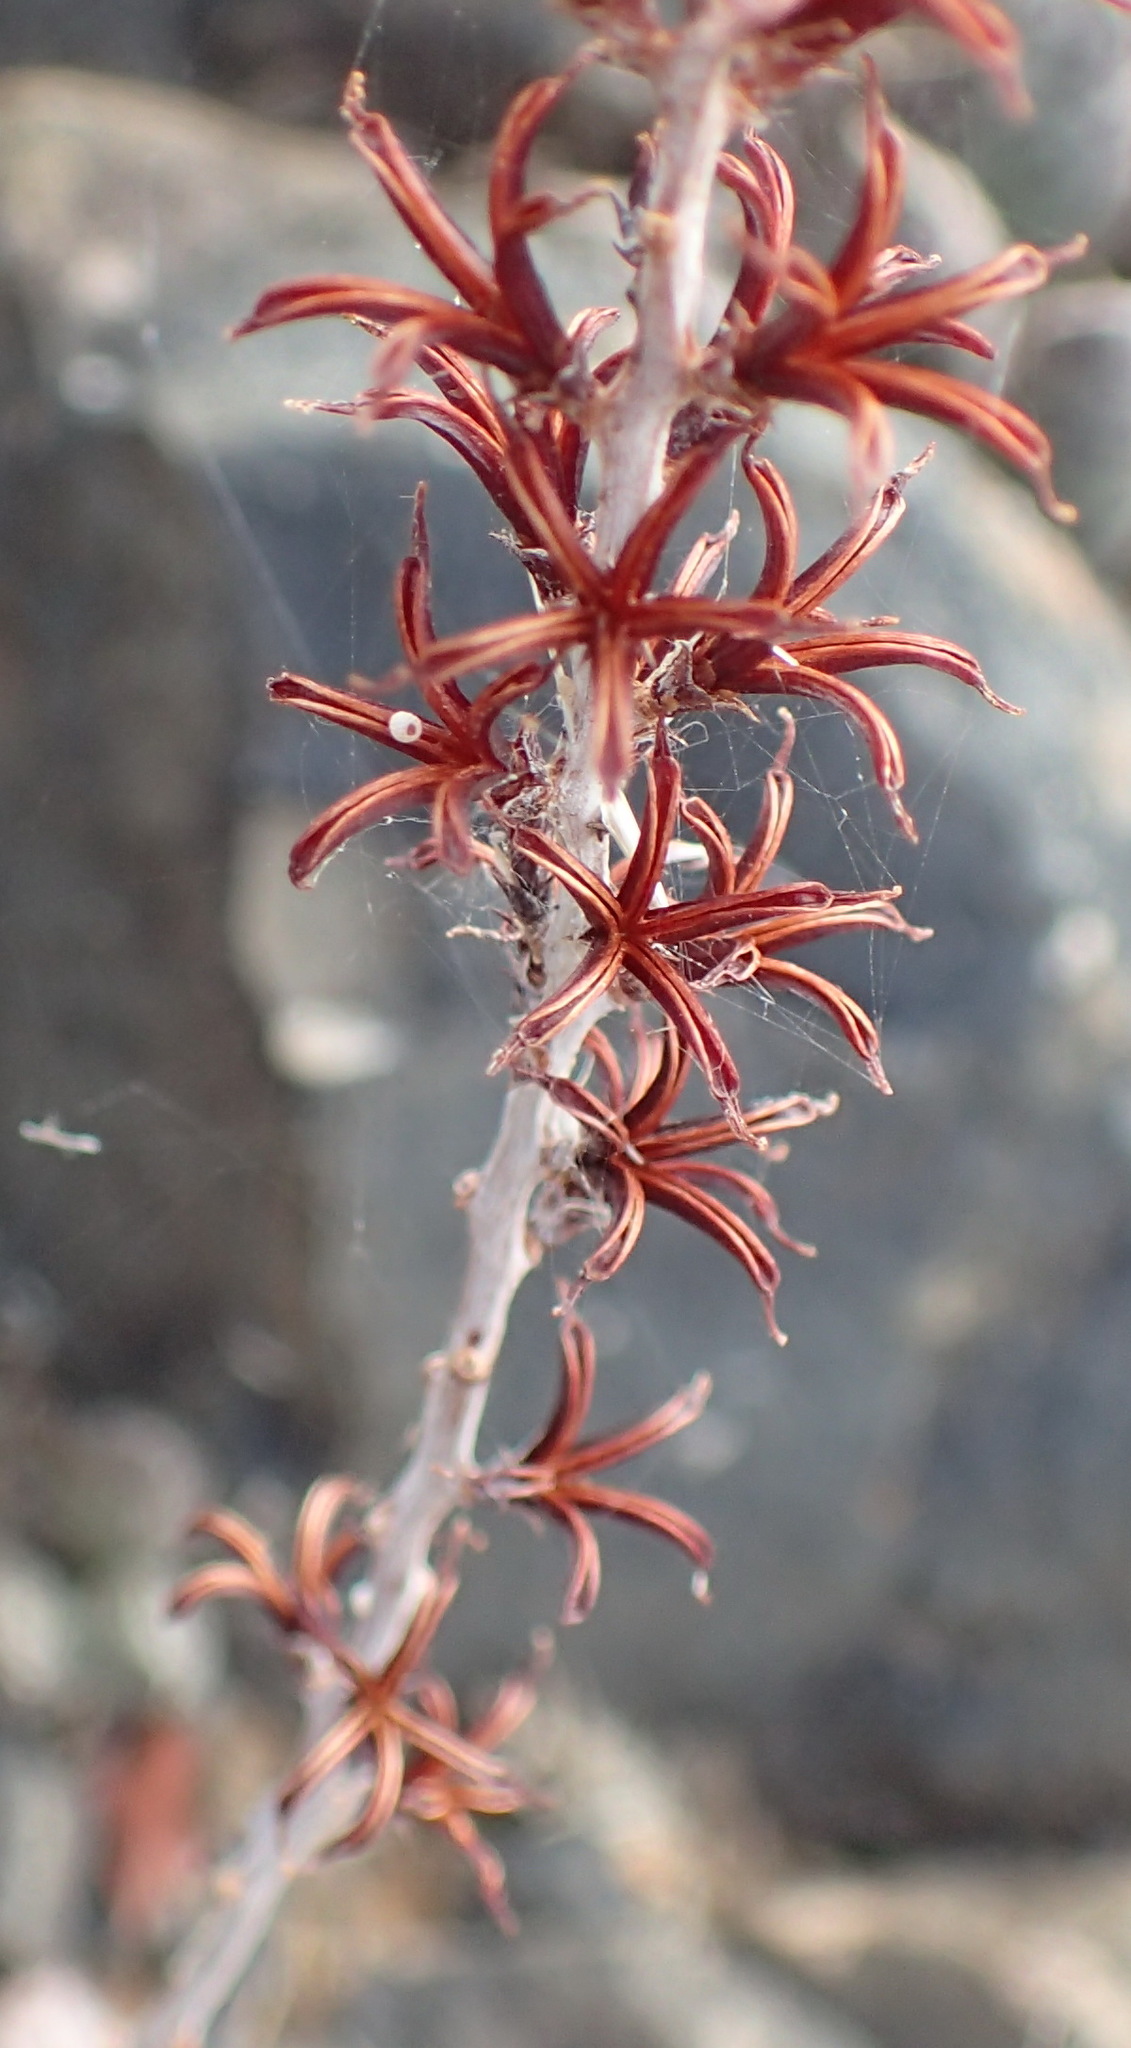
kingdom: Plantae
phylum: Tracheophyta
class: Magnoliopsida
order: Saxifragales
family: Crassulaceae
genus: Adromischus
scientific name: Adromischus cooperi
